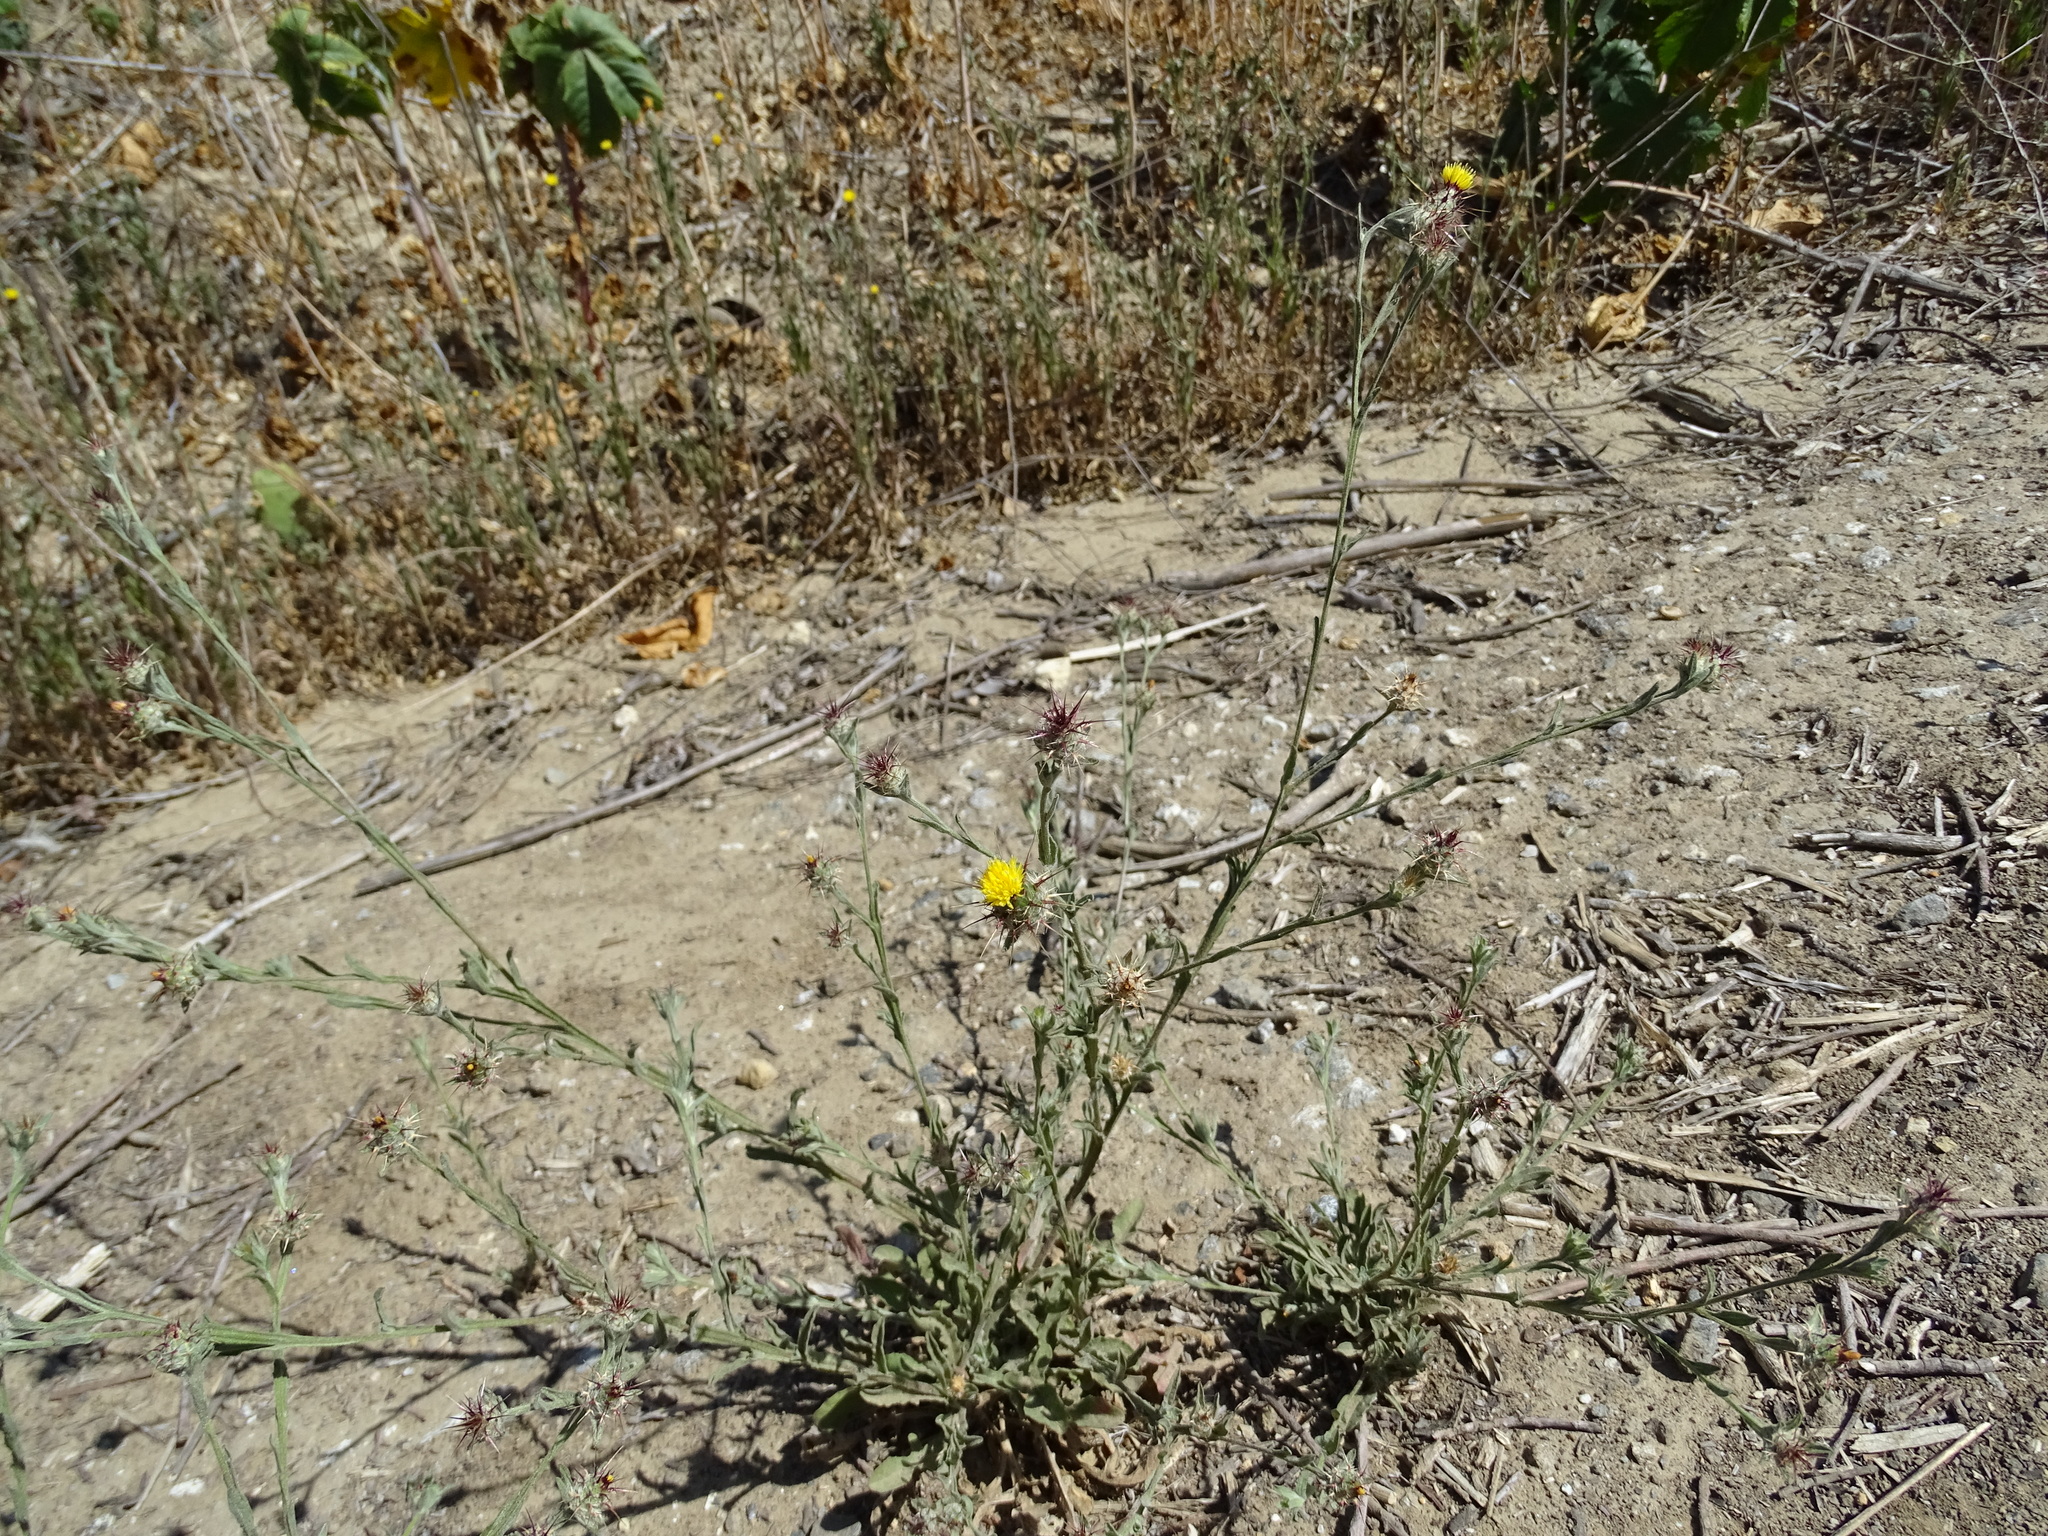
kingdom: Plantae
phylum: Tracheophyta
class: Magnoliopsida
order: Asterales
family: Asteraceae
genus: Centaurea
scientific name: Centaurea melitensis
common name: Maltese star-thistle
